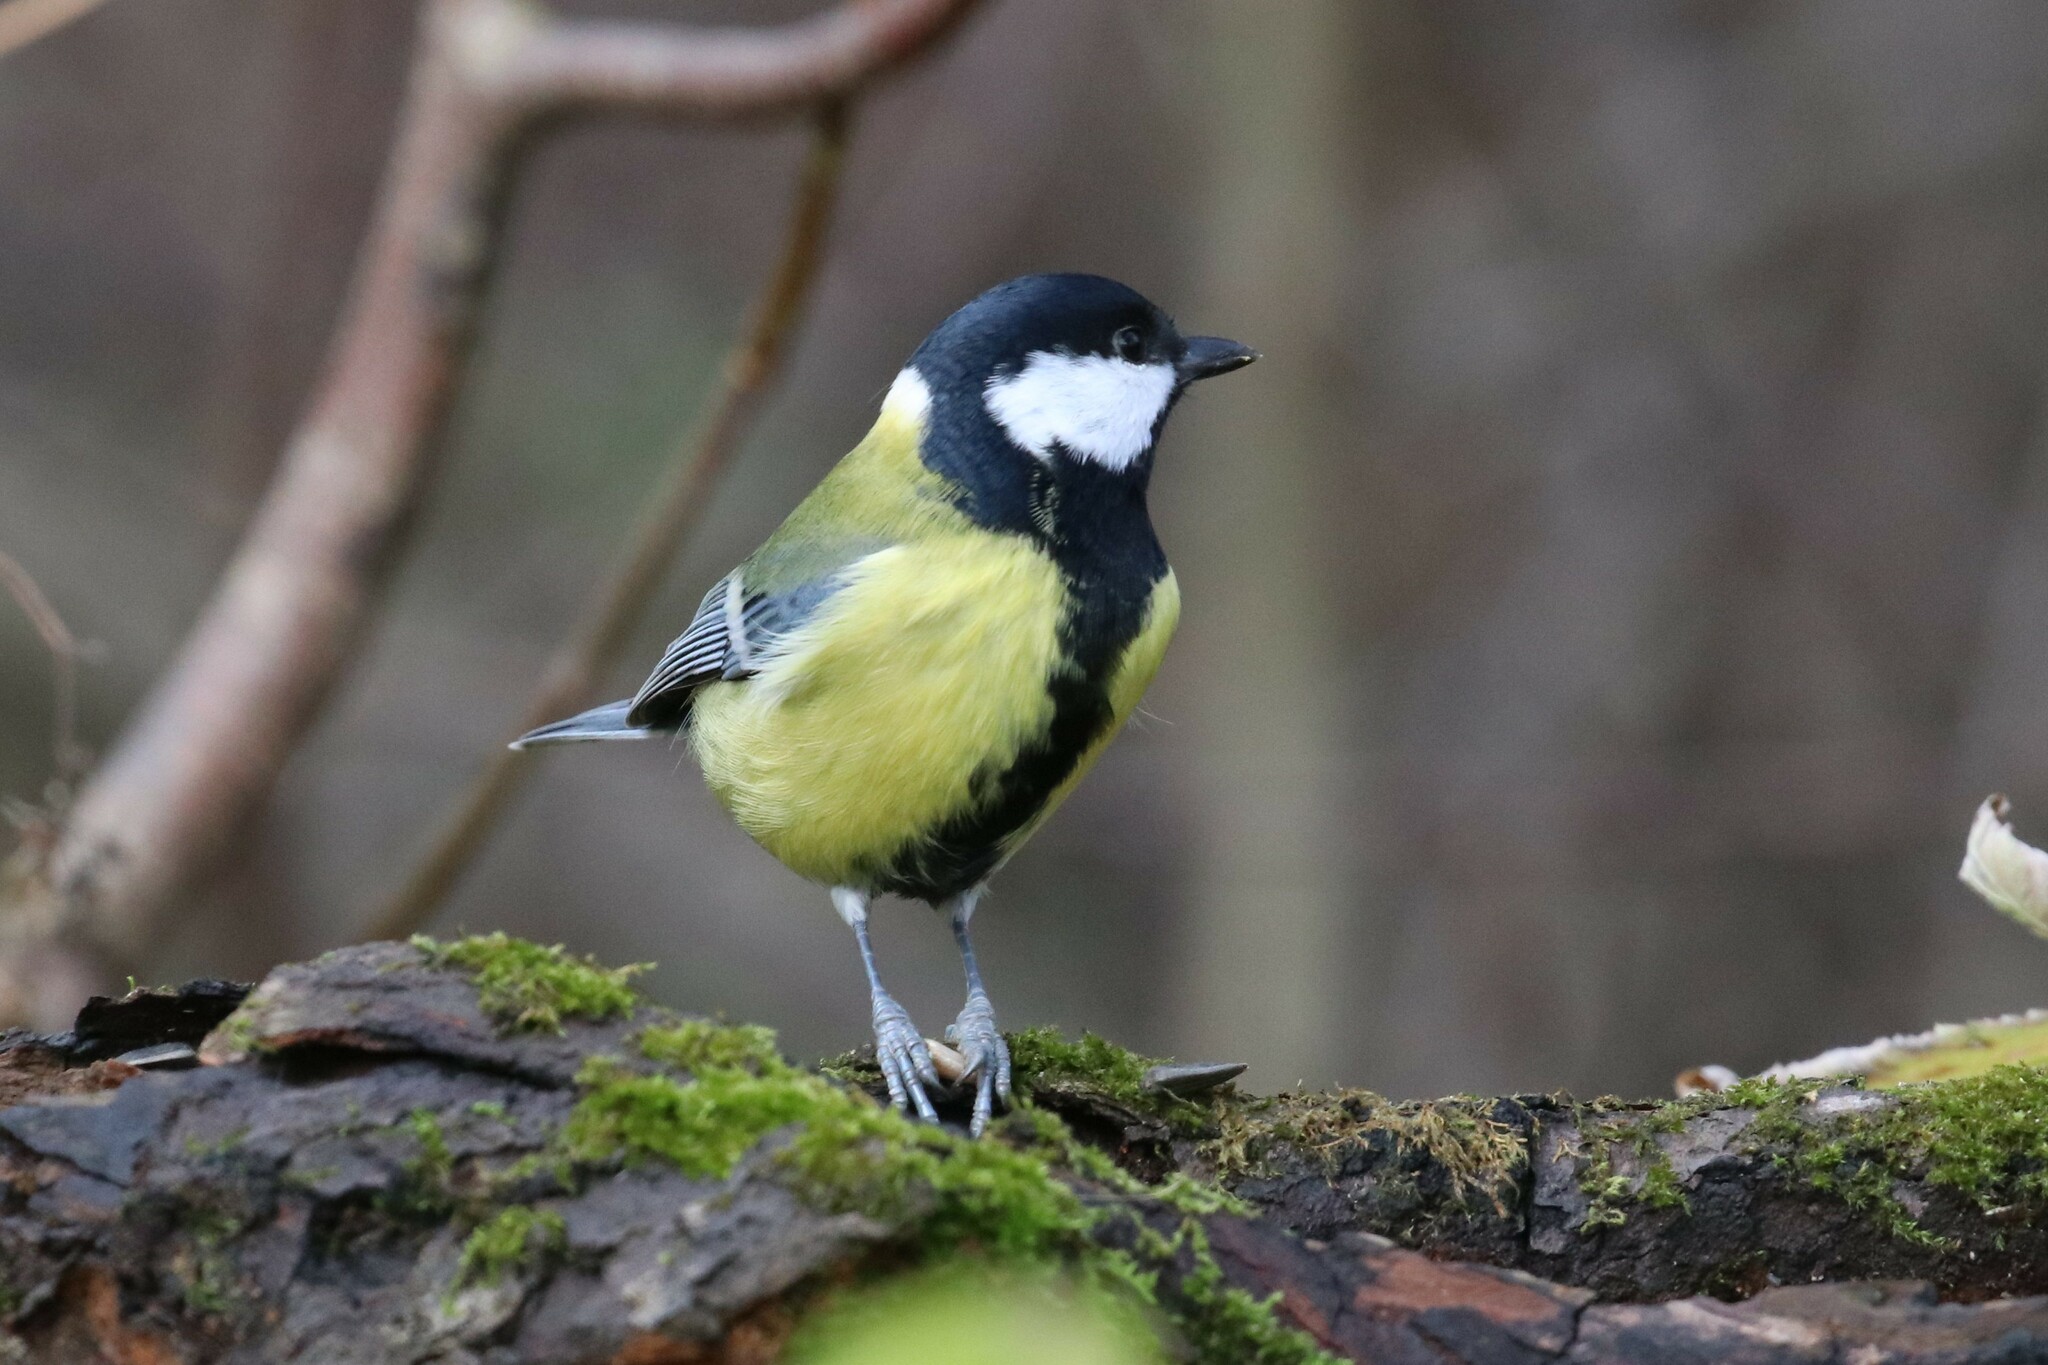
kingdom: Animalia
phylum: Chordata
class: Aves
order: Passeriformes
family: Paridae
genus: Parus
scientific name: Parus major
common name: Great tit
